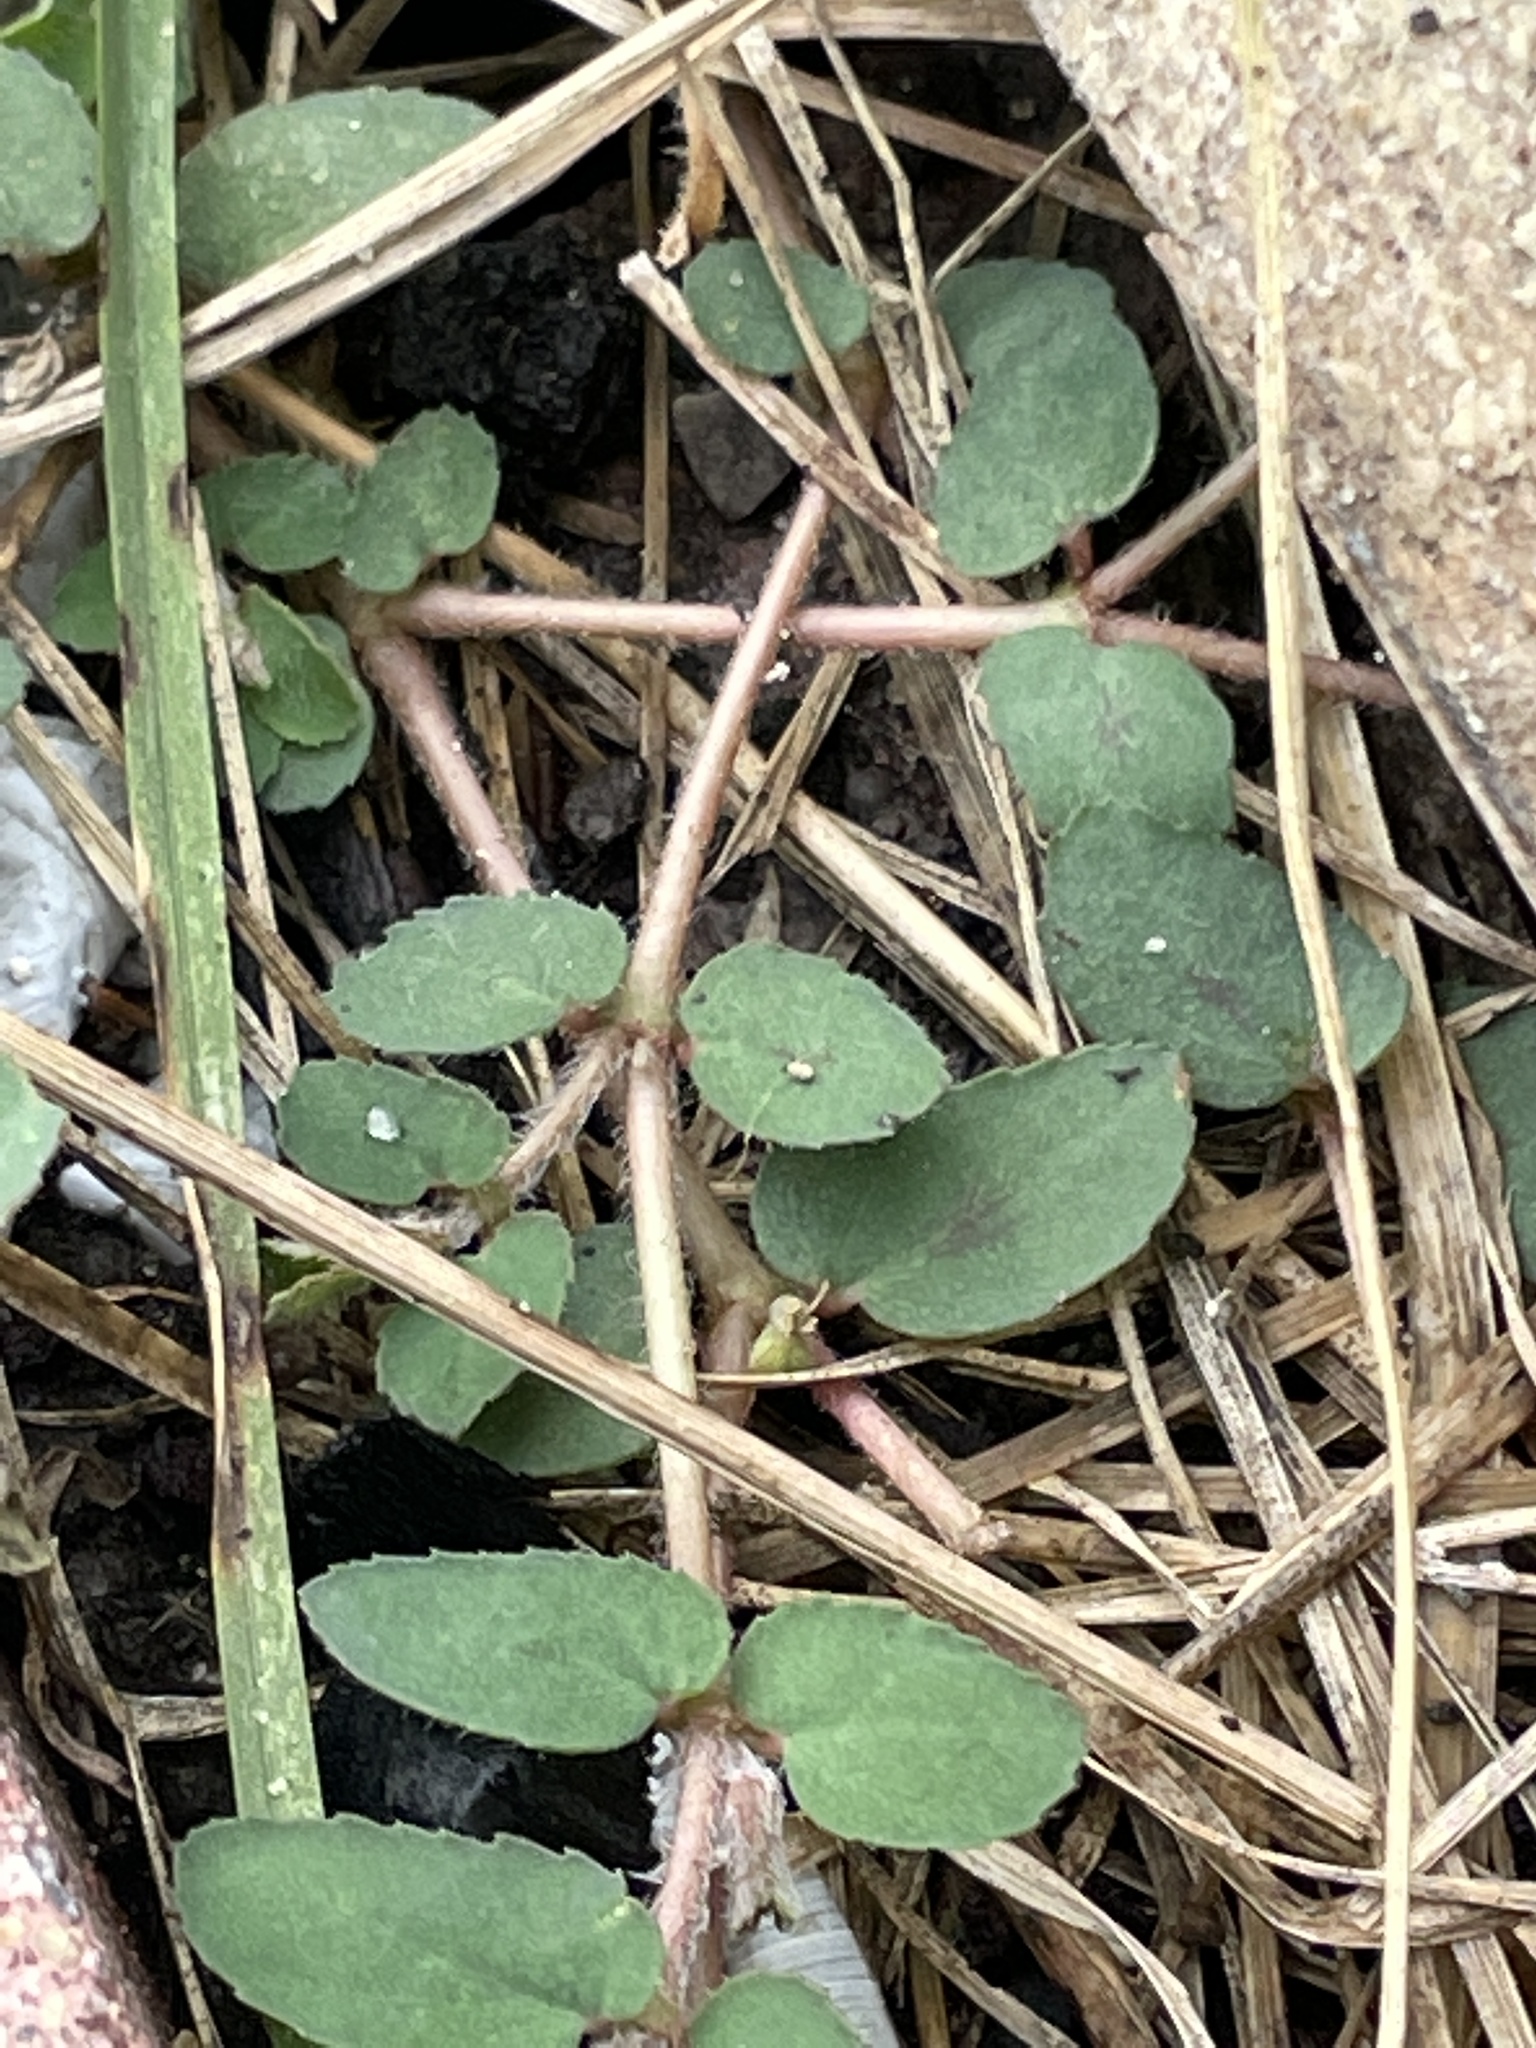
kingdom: Plantae
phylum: Tracheophyta
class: Magnoliopsida
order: Malpighiales
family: Euphorbiaceae
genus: Euphorbia
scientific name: Euphorbia maculata
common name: Spotted spurge
